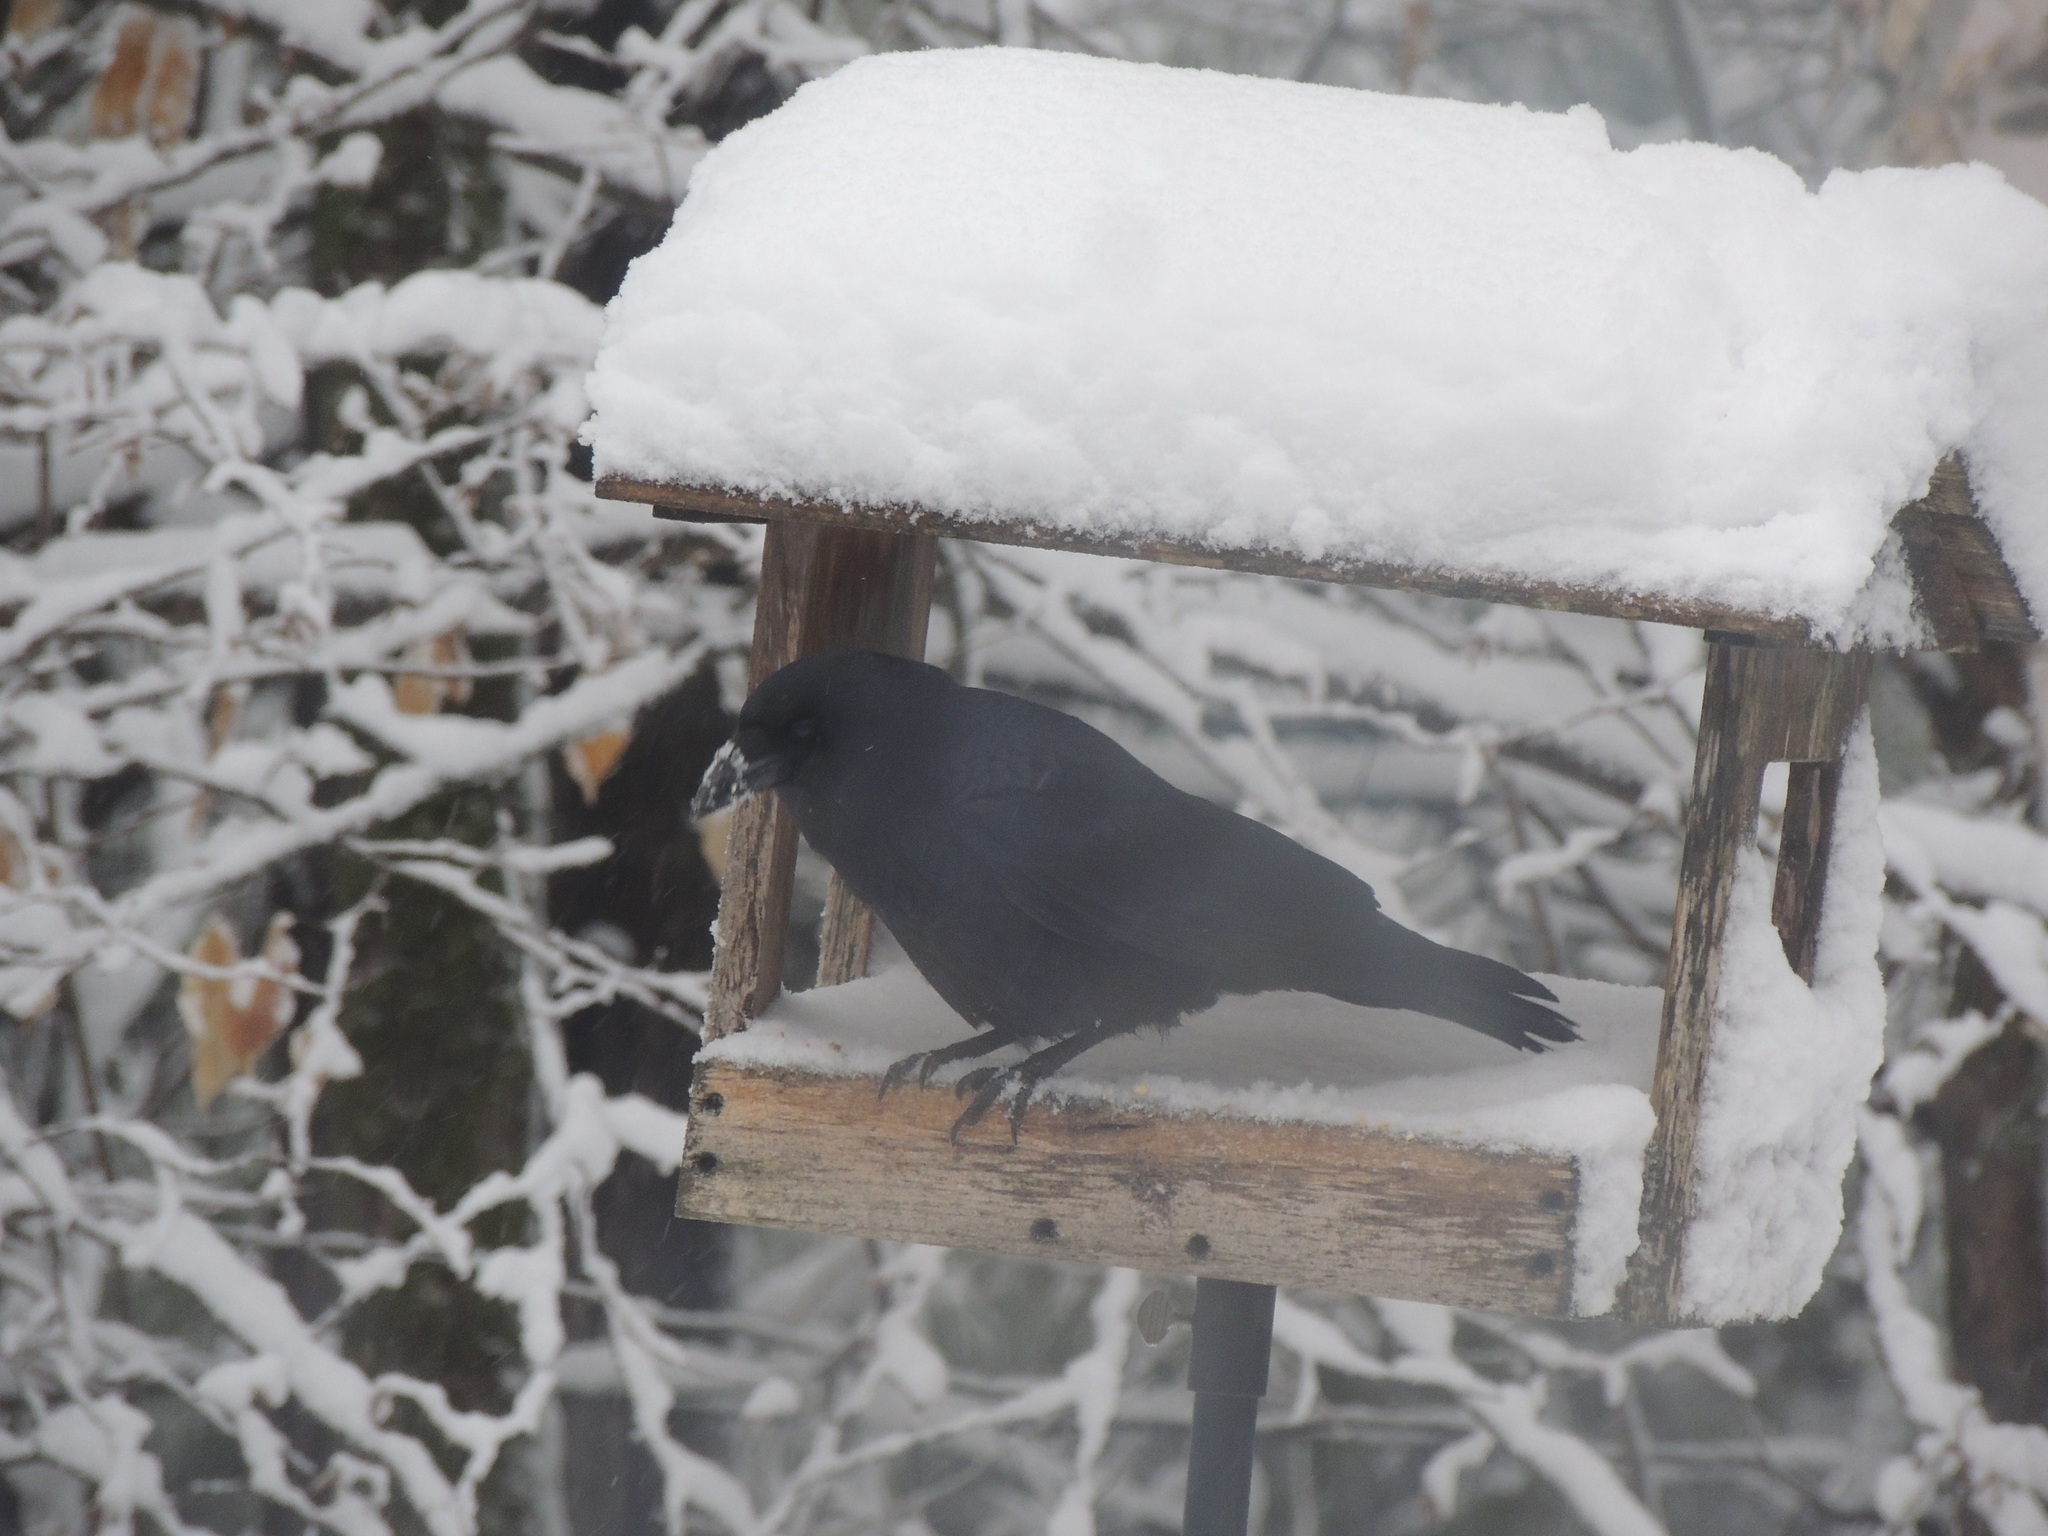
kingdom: Animalia
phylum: Chordata
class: Aves
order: Passeriformes
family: Corvidae
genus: Corvus
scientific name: Corvus brachyrhynchos
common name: American crow
